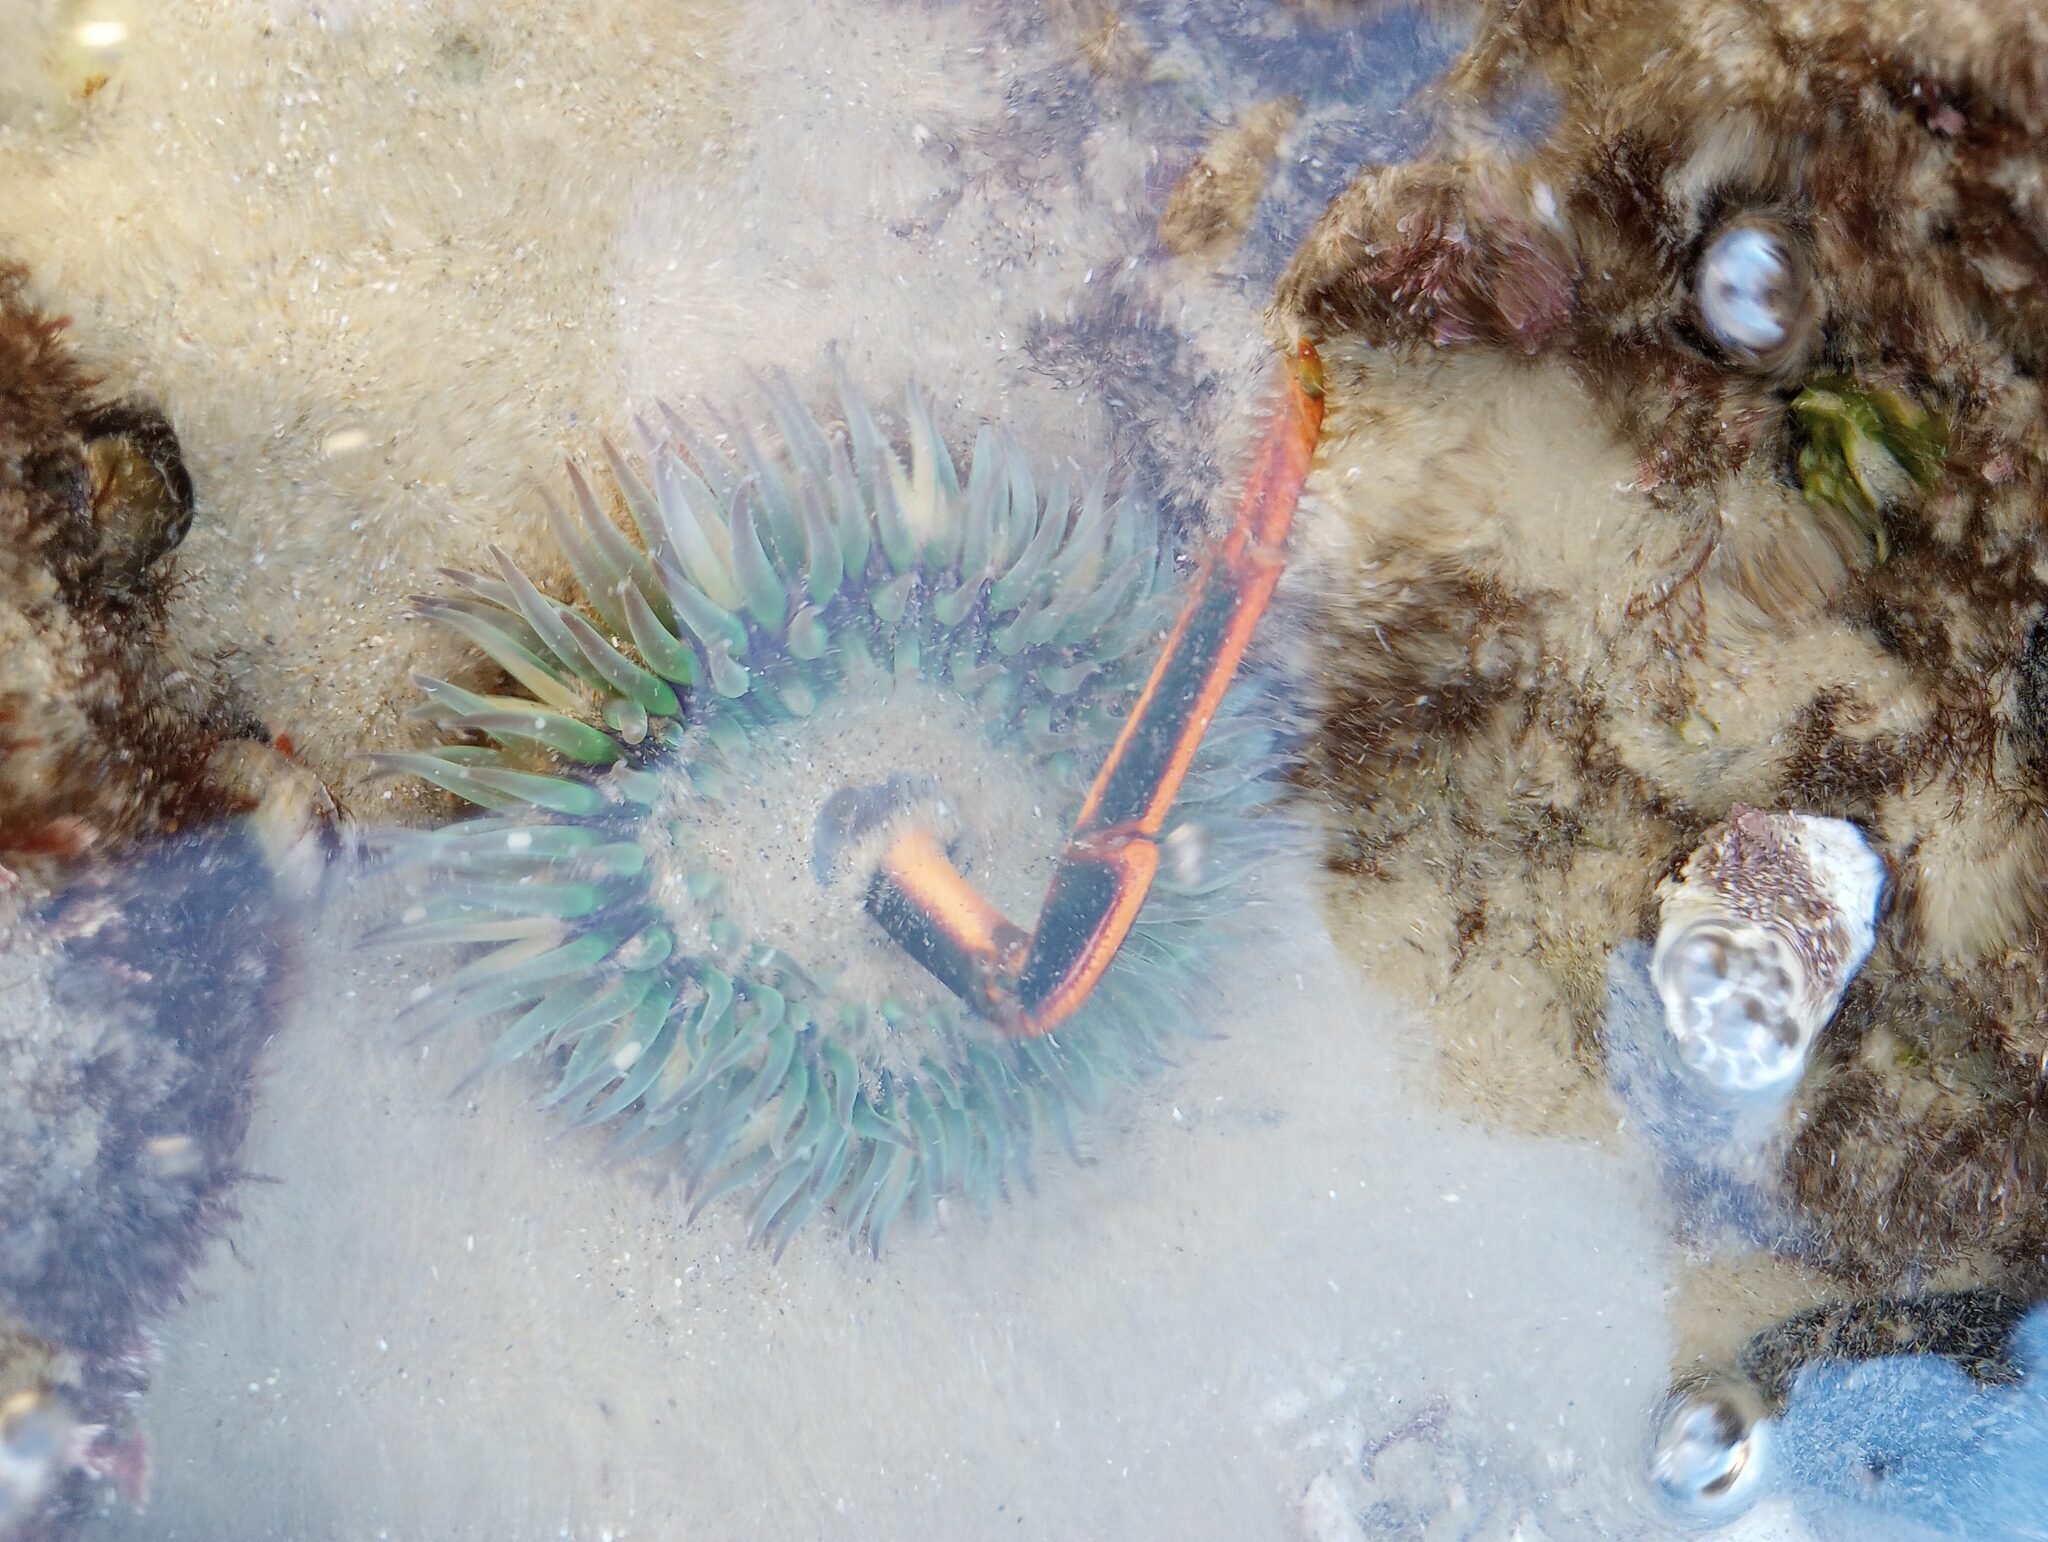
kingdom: Animalia
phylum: Arthropoda
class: Malacostraca
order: Decapoda
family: Palinuridae
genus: Panulirus
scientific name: Panulirus interruptus
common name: California spiny lobster
